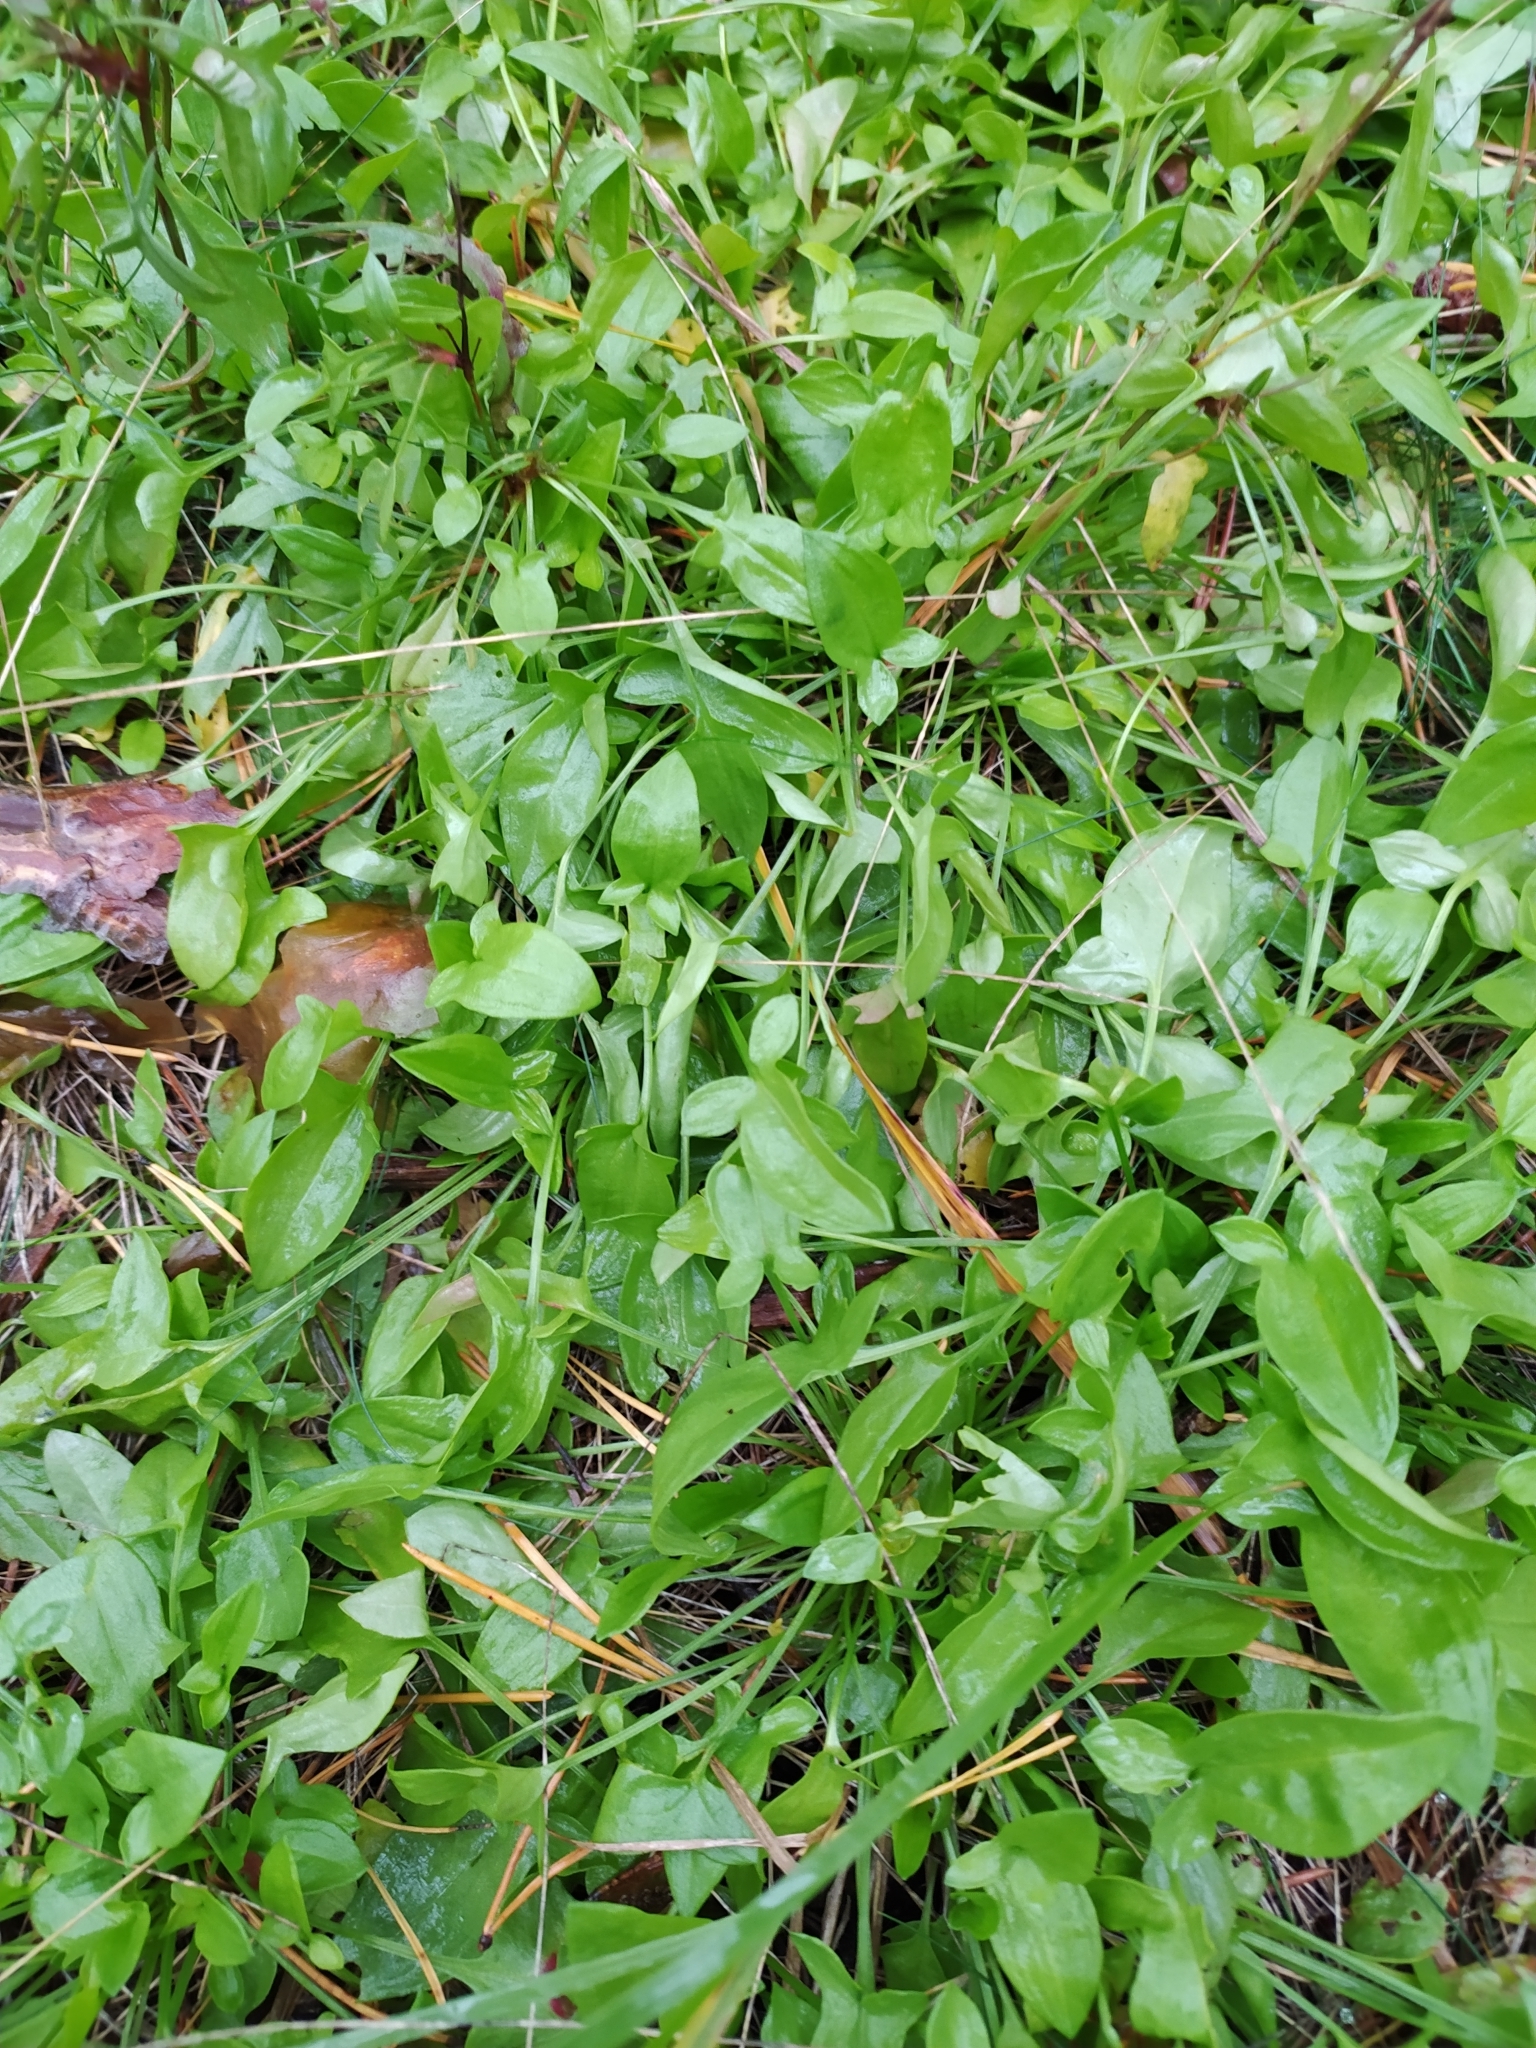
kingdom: Plantae
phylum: Tracheophyta
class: Magnoliopsida
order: Caryophyllales
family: Polygonaceae
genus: Rumex
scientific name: Rumex acetosella
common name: Common sheep sorrel
